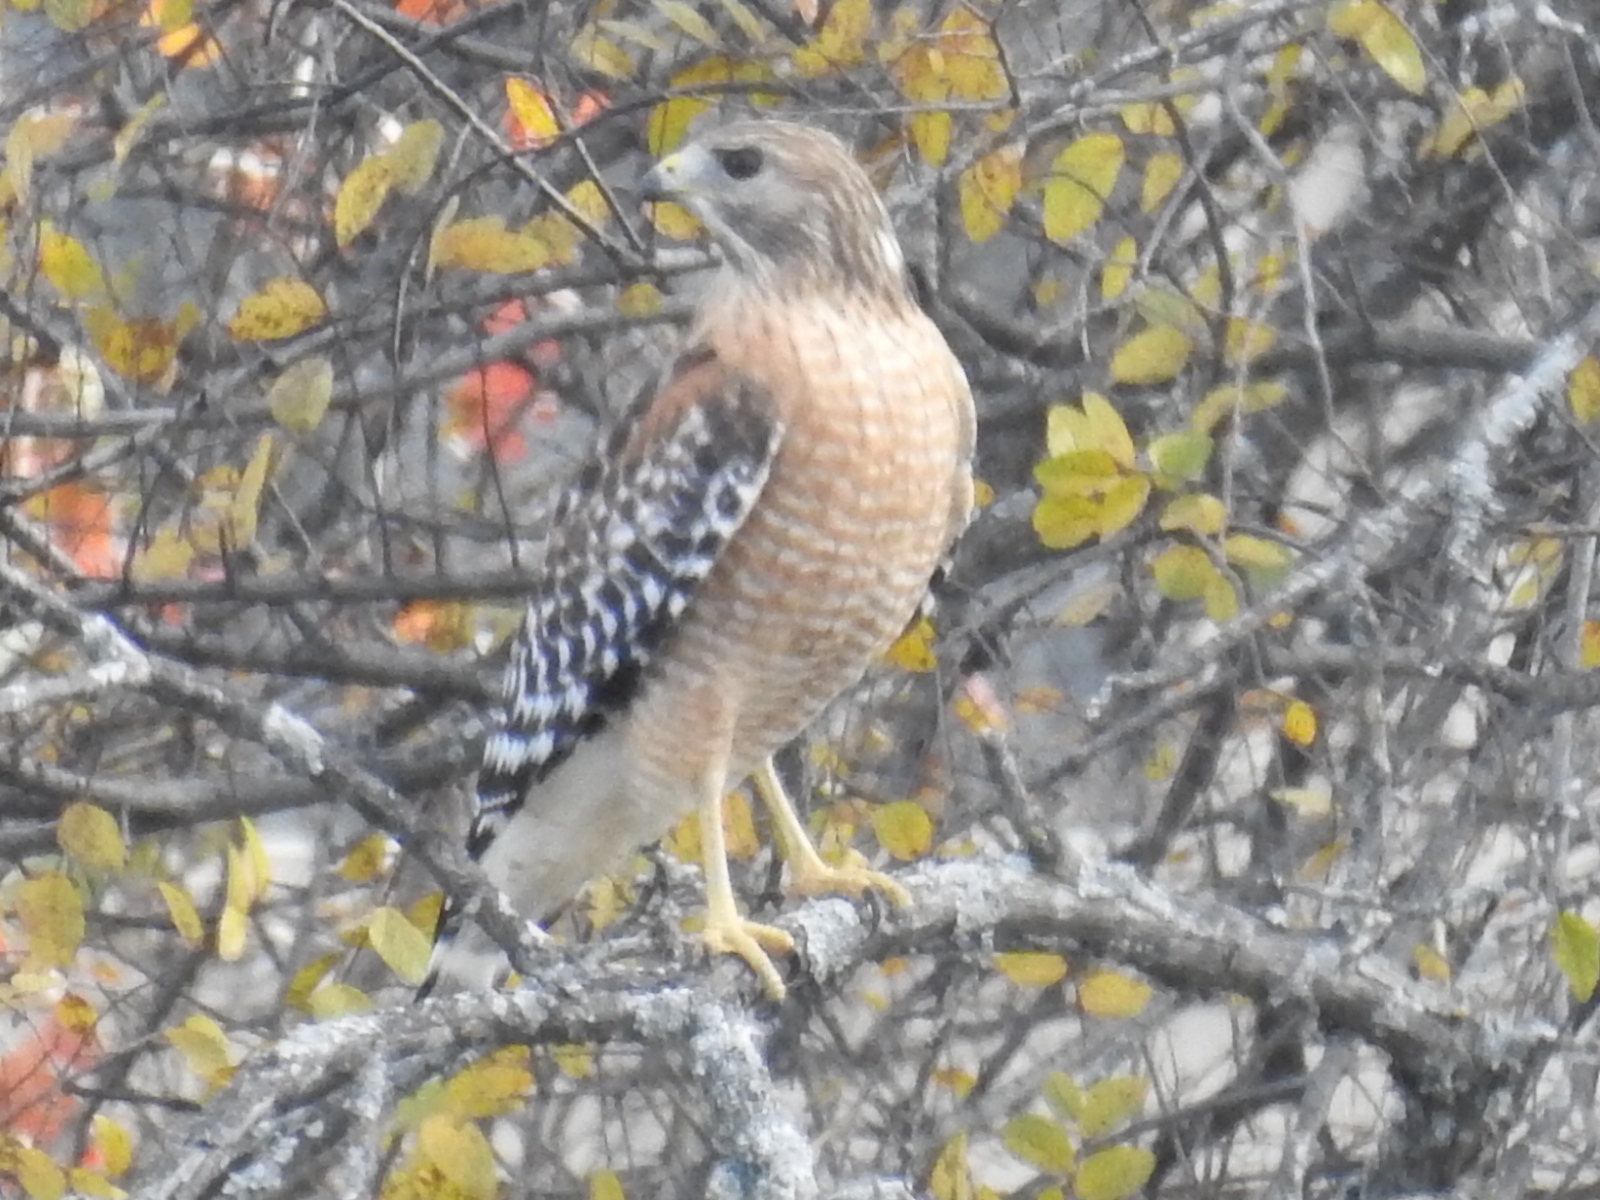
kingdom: Animalia
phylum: Chordata
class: Aves
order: Accipitriformes
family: Accipitridae
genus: Buteo
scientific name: Buteo lineatus
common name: Red-shouldered hawk
